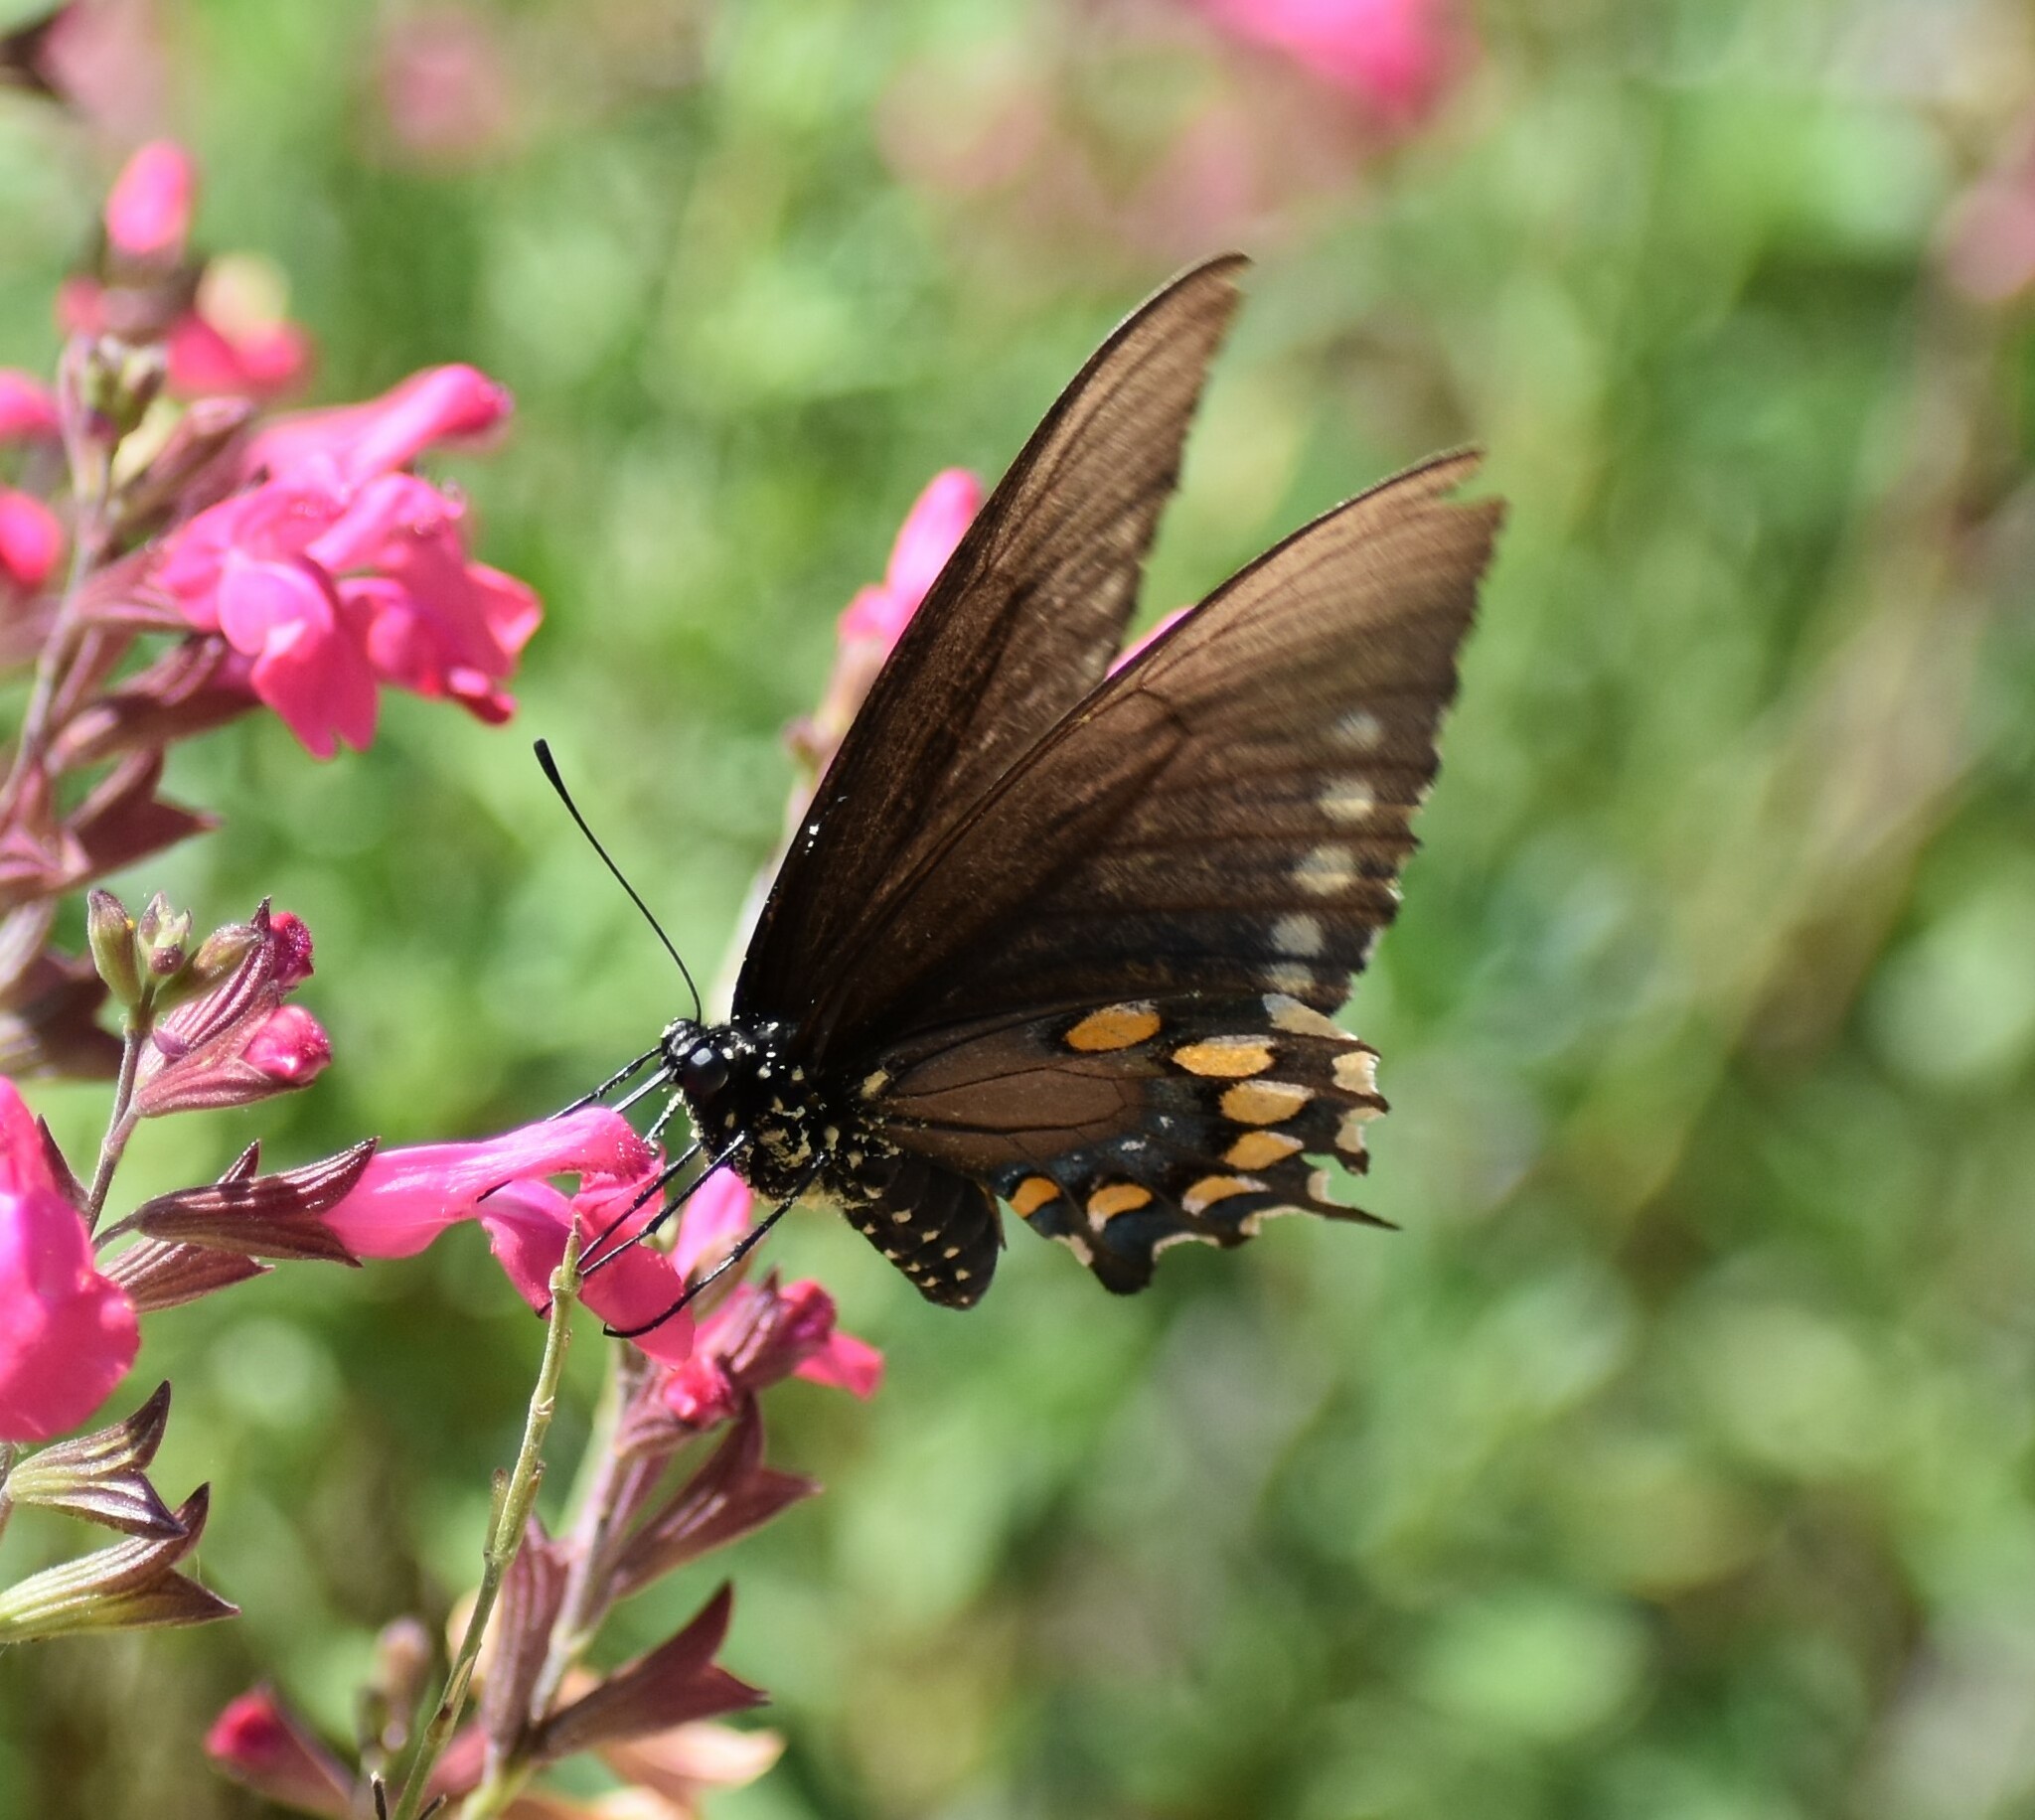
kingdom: Animalia
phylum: Arthropoda
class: Insecta
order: Lepidoptera
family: Papilionidae
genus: Battus
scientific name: Battus philenor
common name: Pipevine swallowtail
